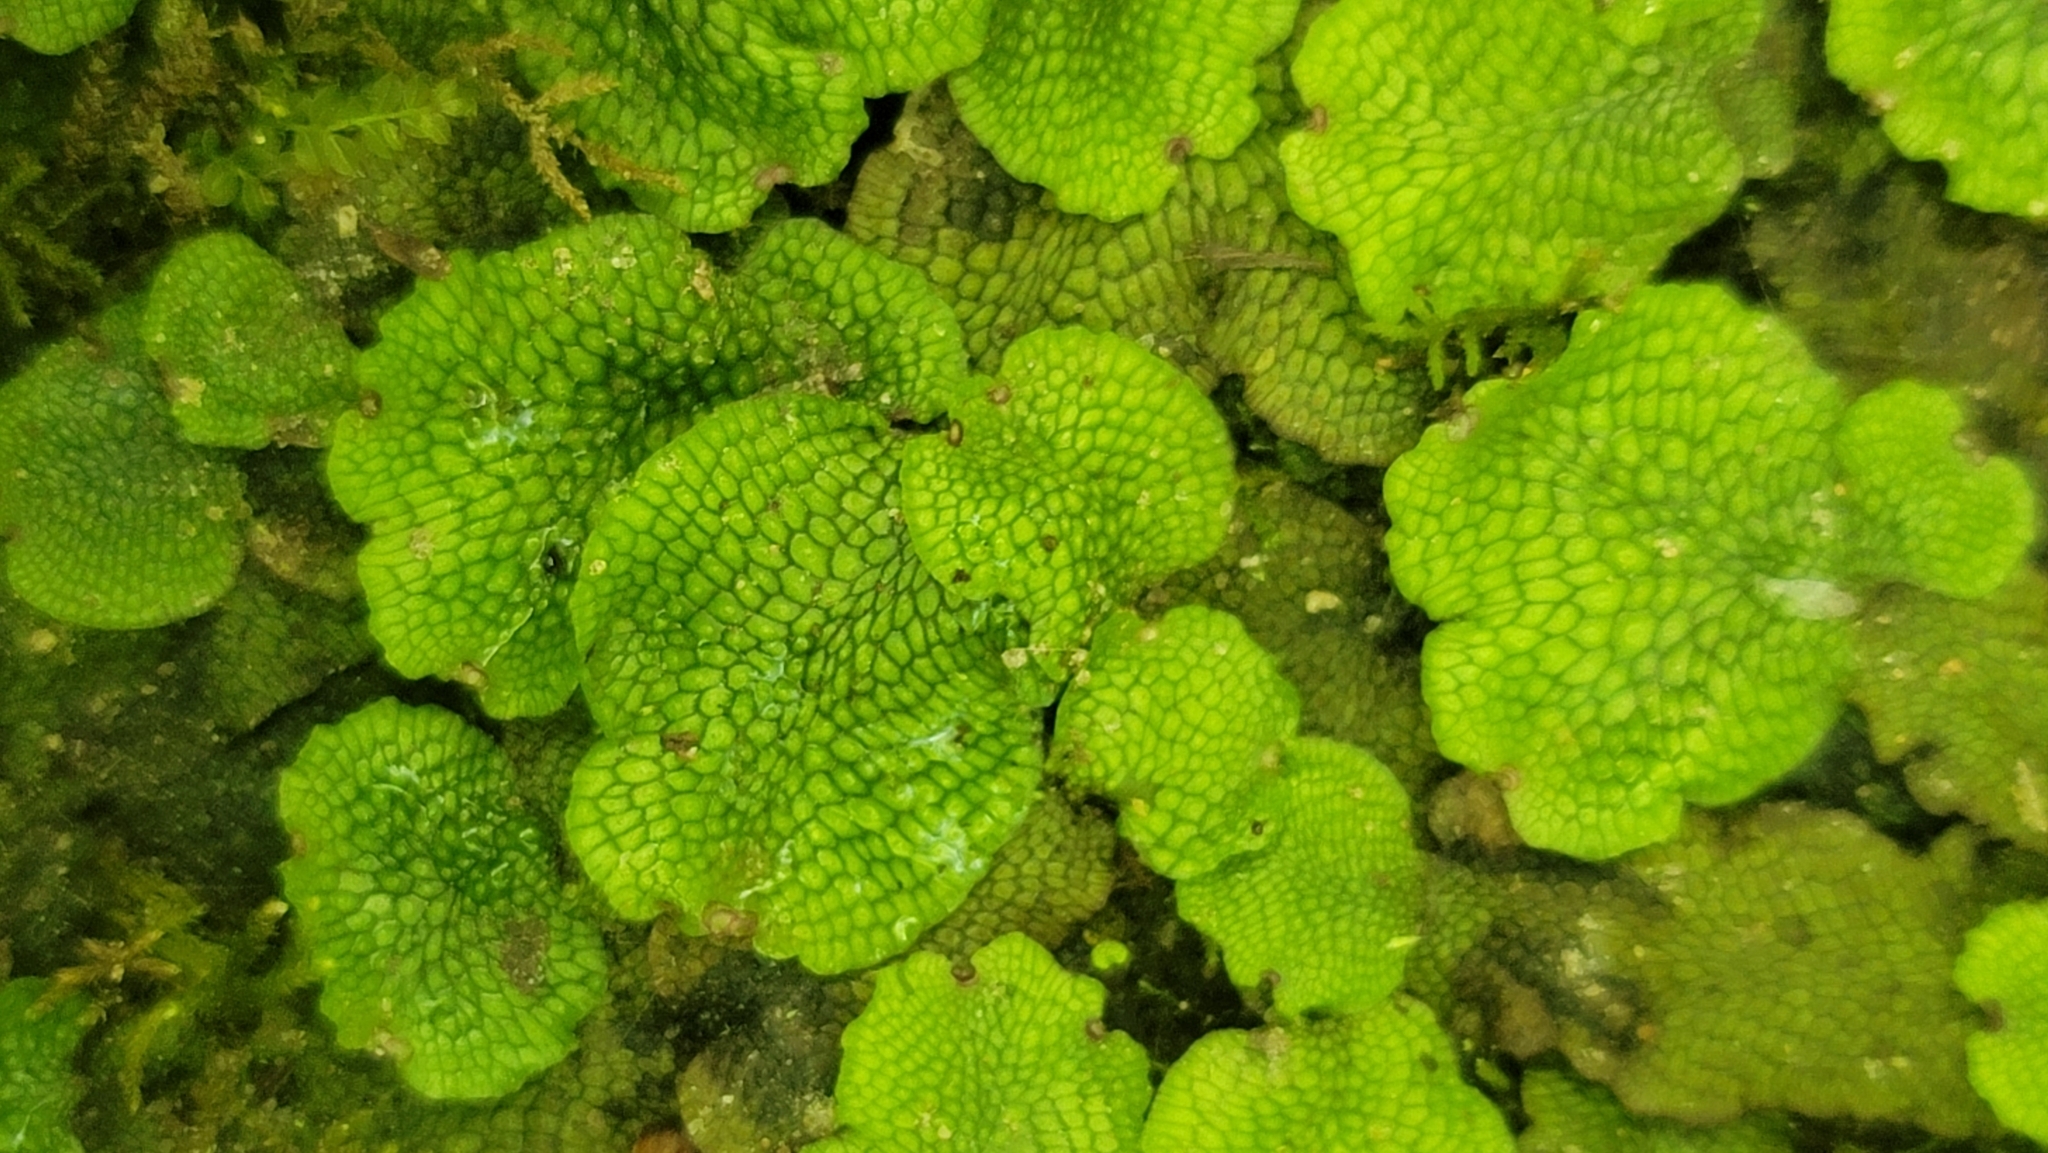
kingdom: Plantae
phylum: Marchantiophyta
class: Marchantiopsida
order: Marchantiales
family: Conocephalaceae
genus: Conocephalum
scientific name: Conocephalum salebrosum
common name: Cat-tongue liverwort
